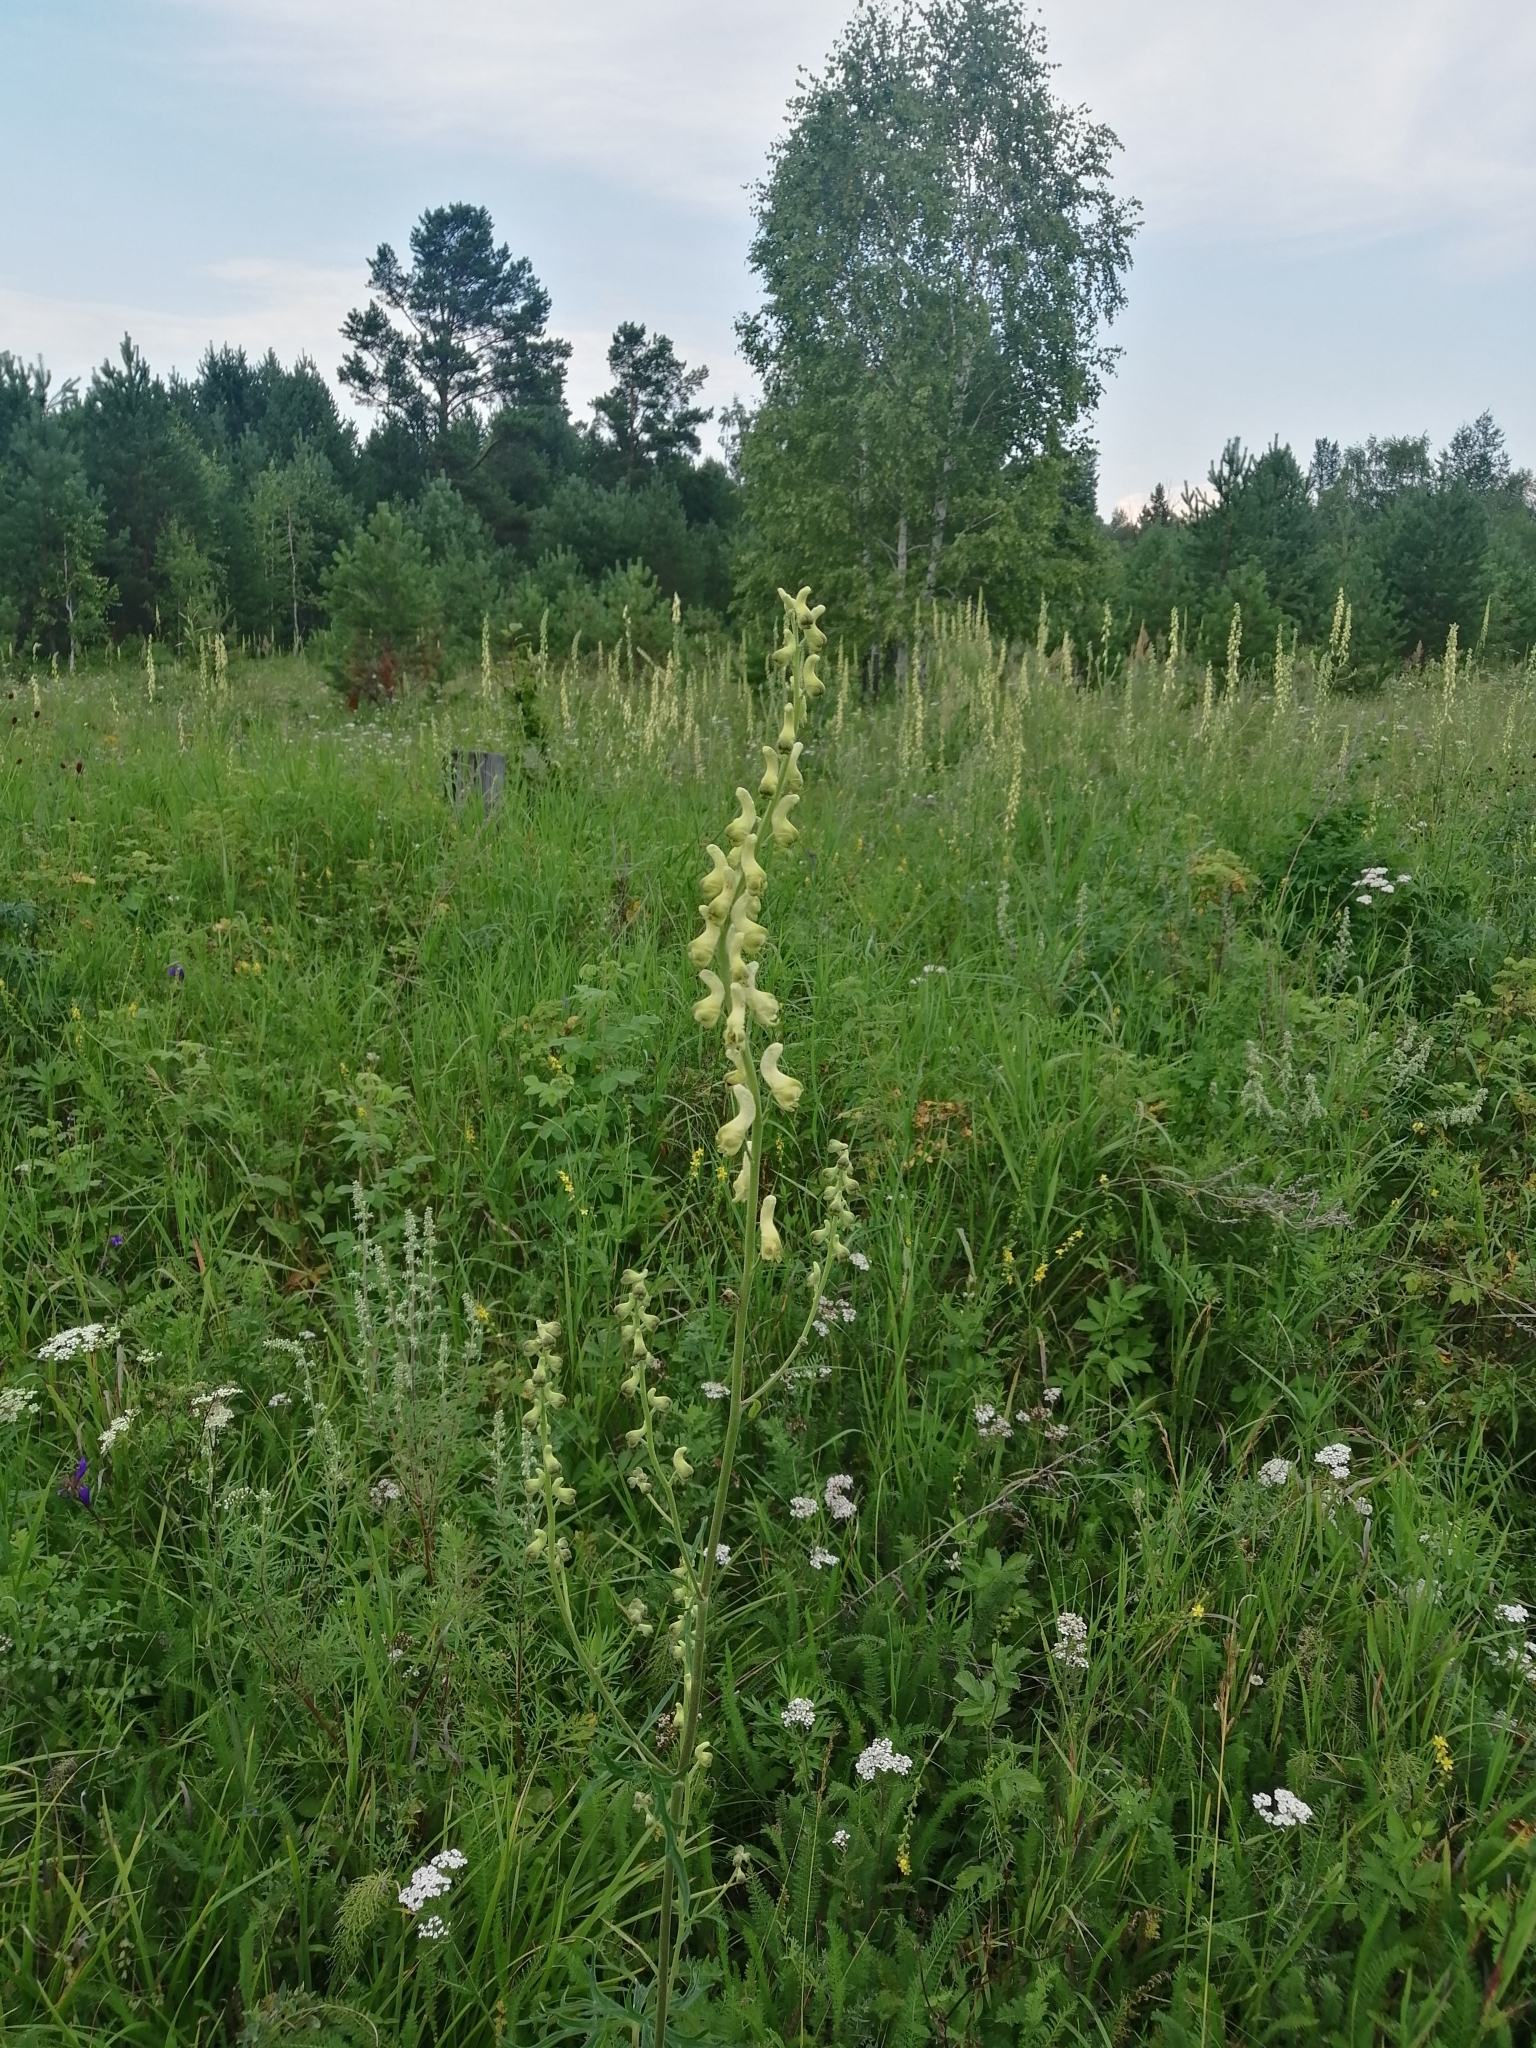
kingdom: Plantae
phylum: Tracheophyta
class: Magnoliopsida
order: Ranunculales
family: Ranunculaceae
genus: Aconitum
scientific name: Aconitum barbatum
